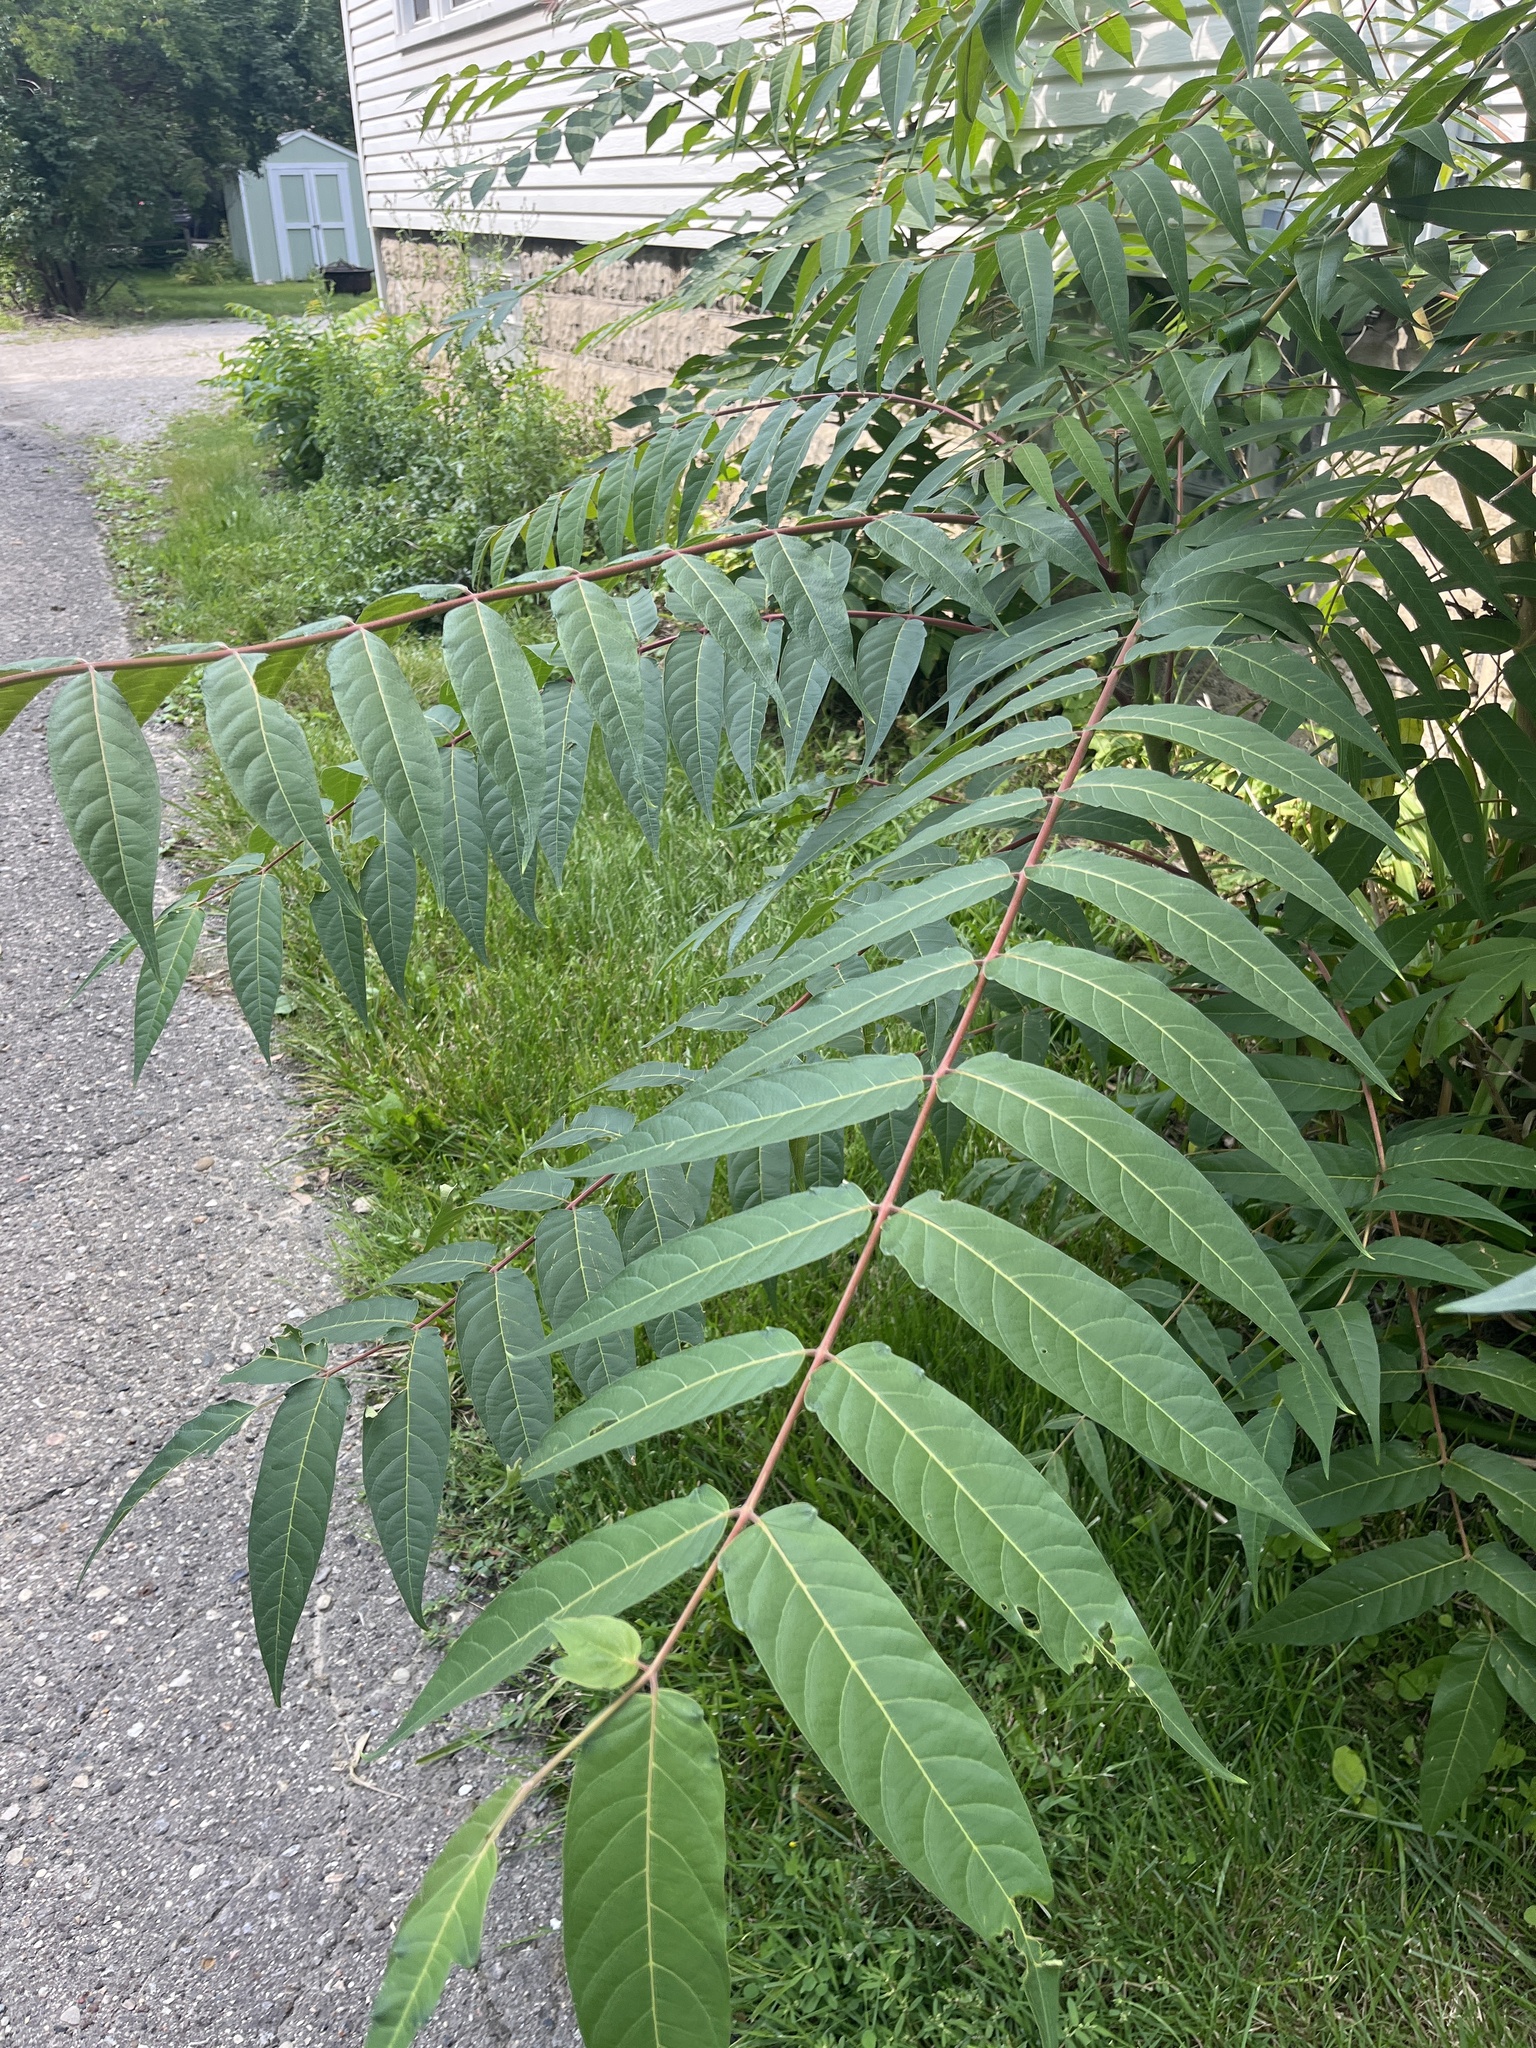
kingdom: Plantae
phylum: Tracheophyta
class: Magnoliopsida
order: Sapindales
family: Simaroubaceae
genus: Ailanthus
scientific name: Ailanthus altissima
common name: Tree-of-heaven
